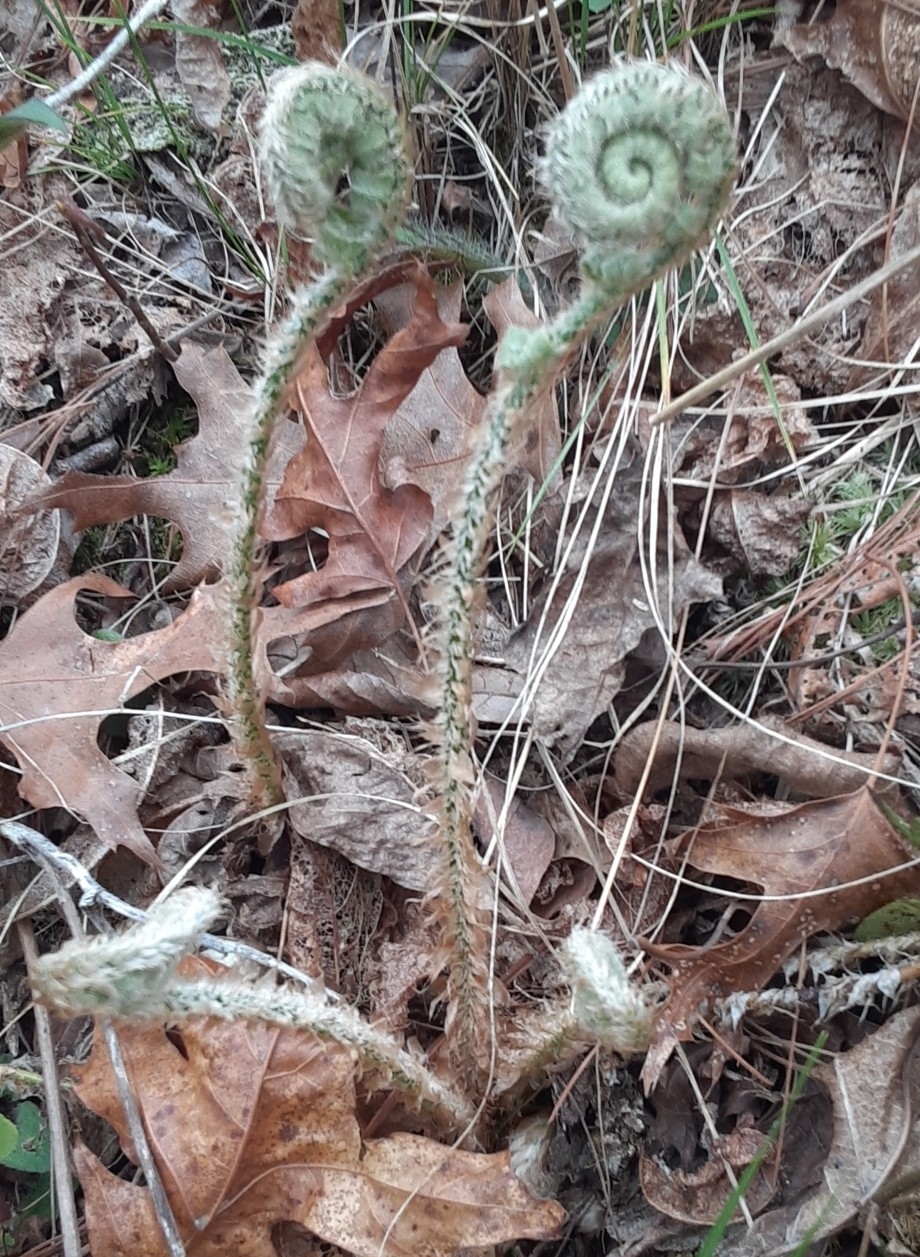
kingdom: Plantae
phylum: Tracheophyta
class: Polypodiopsida
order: Polypodiales
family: Dryopteridaceae
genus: Polystichum
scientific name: Polystichum acrostichoides
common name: Christmas fern
